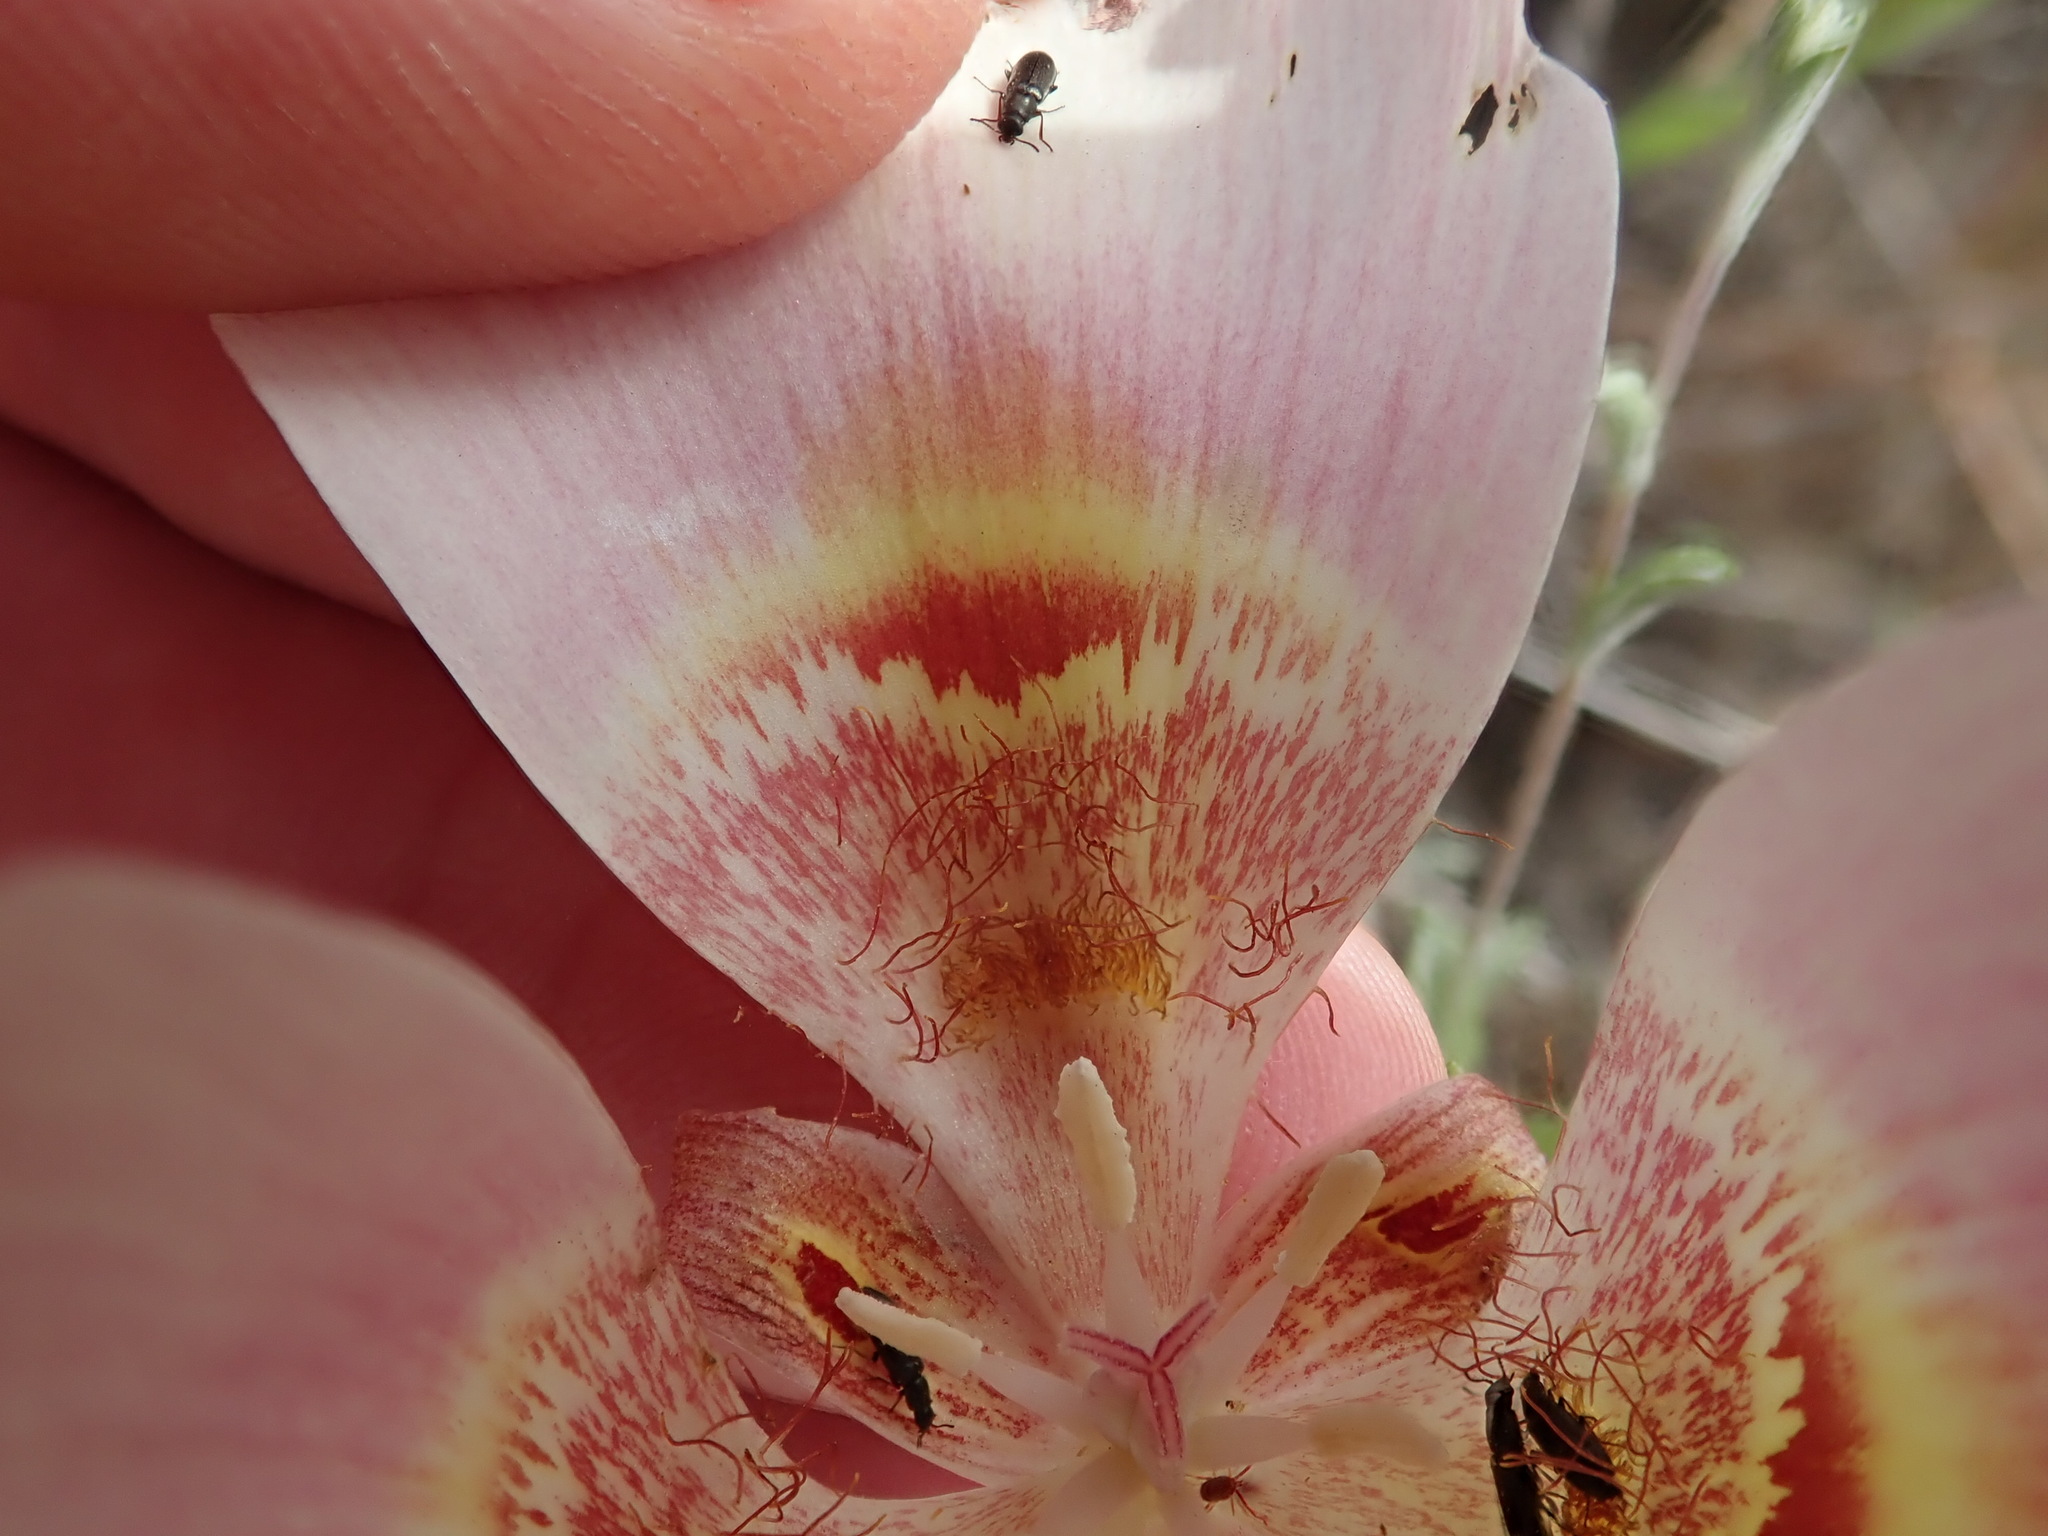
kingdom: Plantae
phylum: Tracheophyta
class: Liliopsida
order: Liliales
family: Liliaceae
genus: Calochortus
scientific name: Calochortus argillosus
